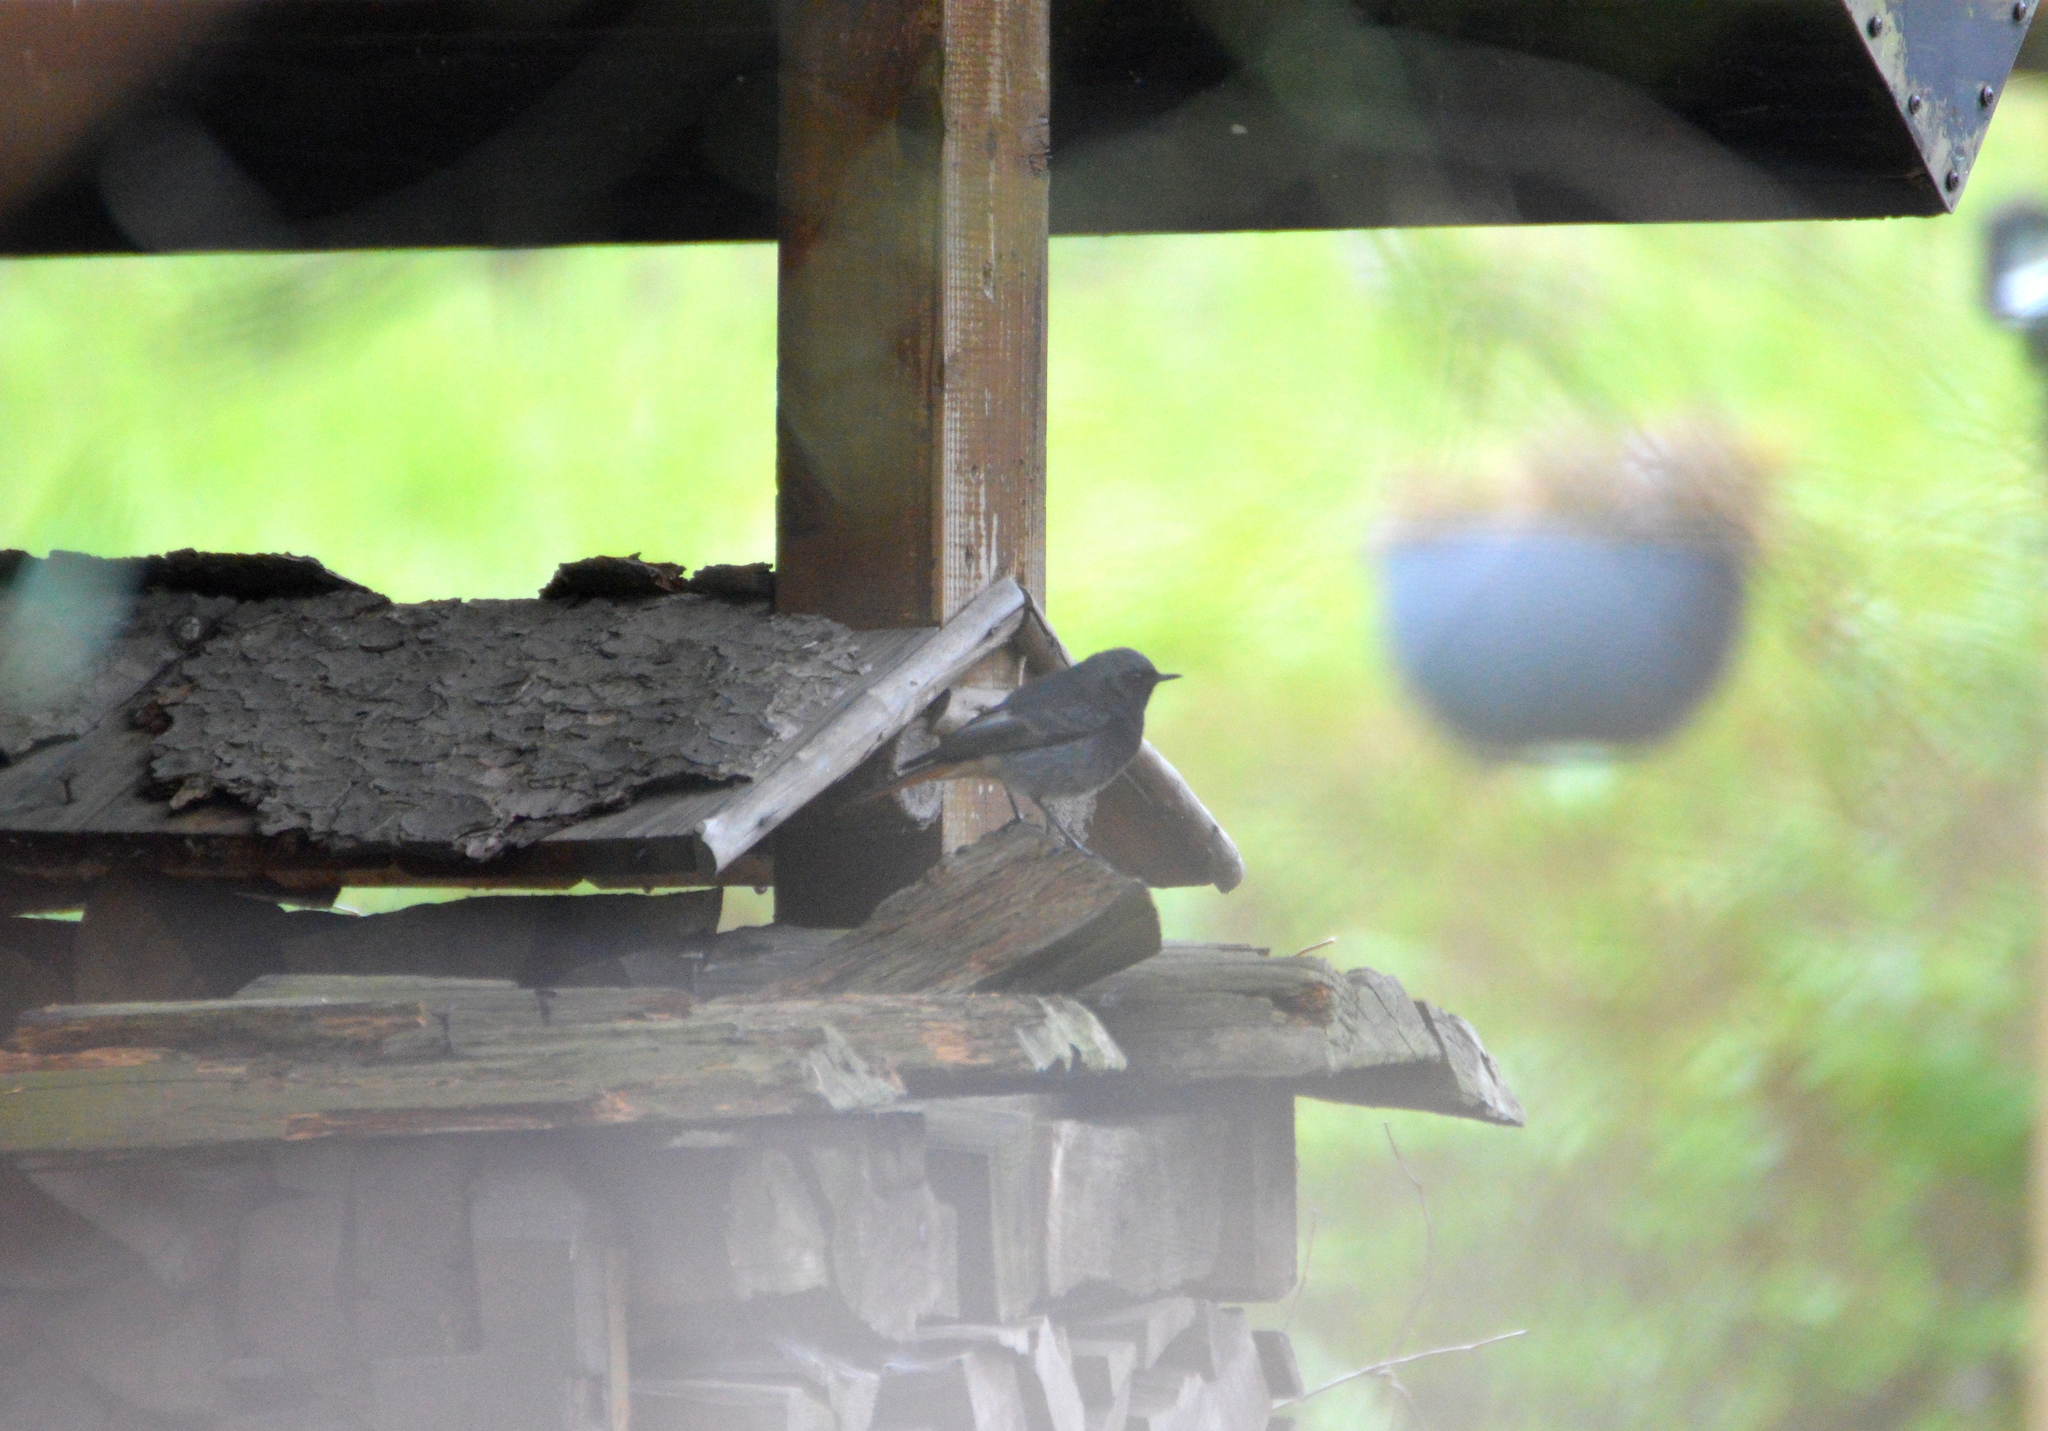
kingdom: Animalia
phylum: Chordata
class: Aves
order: Passeriformes
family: Muscicapidae
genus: Phoenicurus
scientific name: Phoenicurus ochruros
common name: Black redstart
